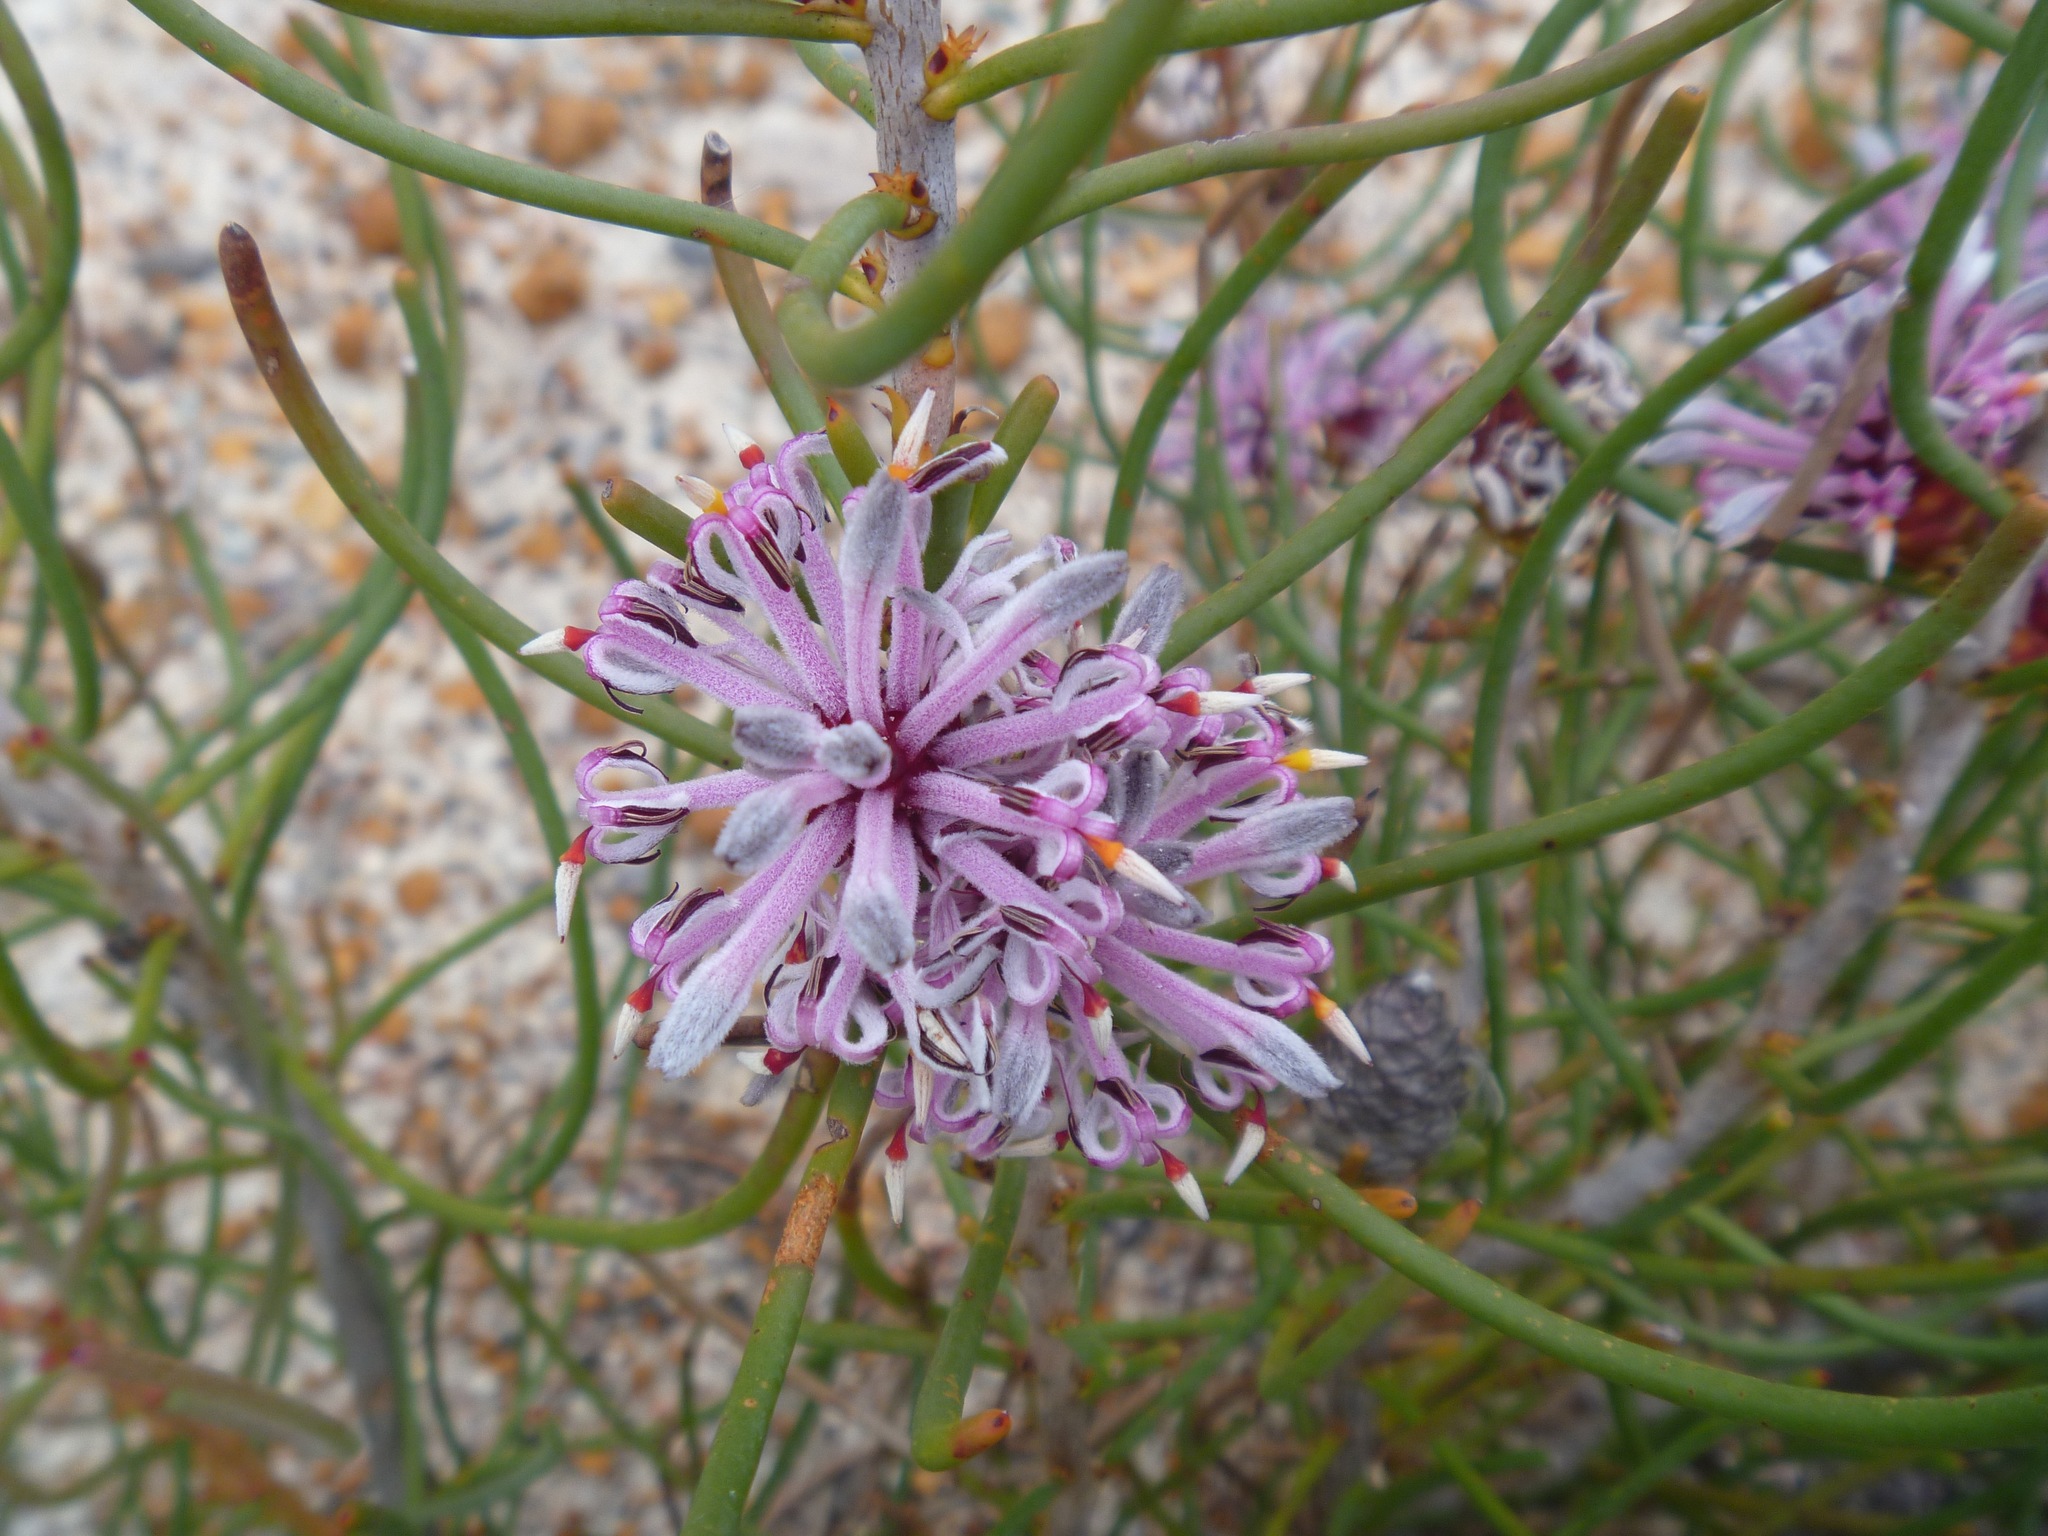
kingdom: Plantae
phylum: Tracheophyta
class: Magnoliopsida
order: Proteales
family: Proteaceae
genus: Petrophile
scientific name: Petrophile teretifolia
